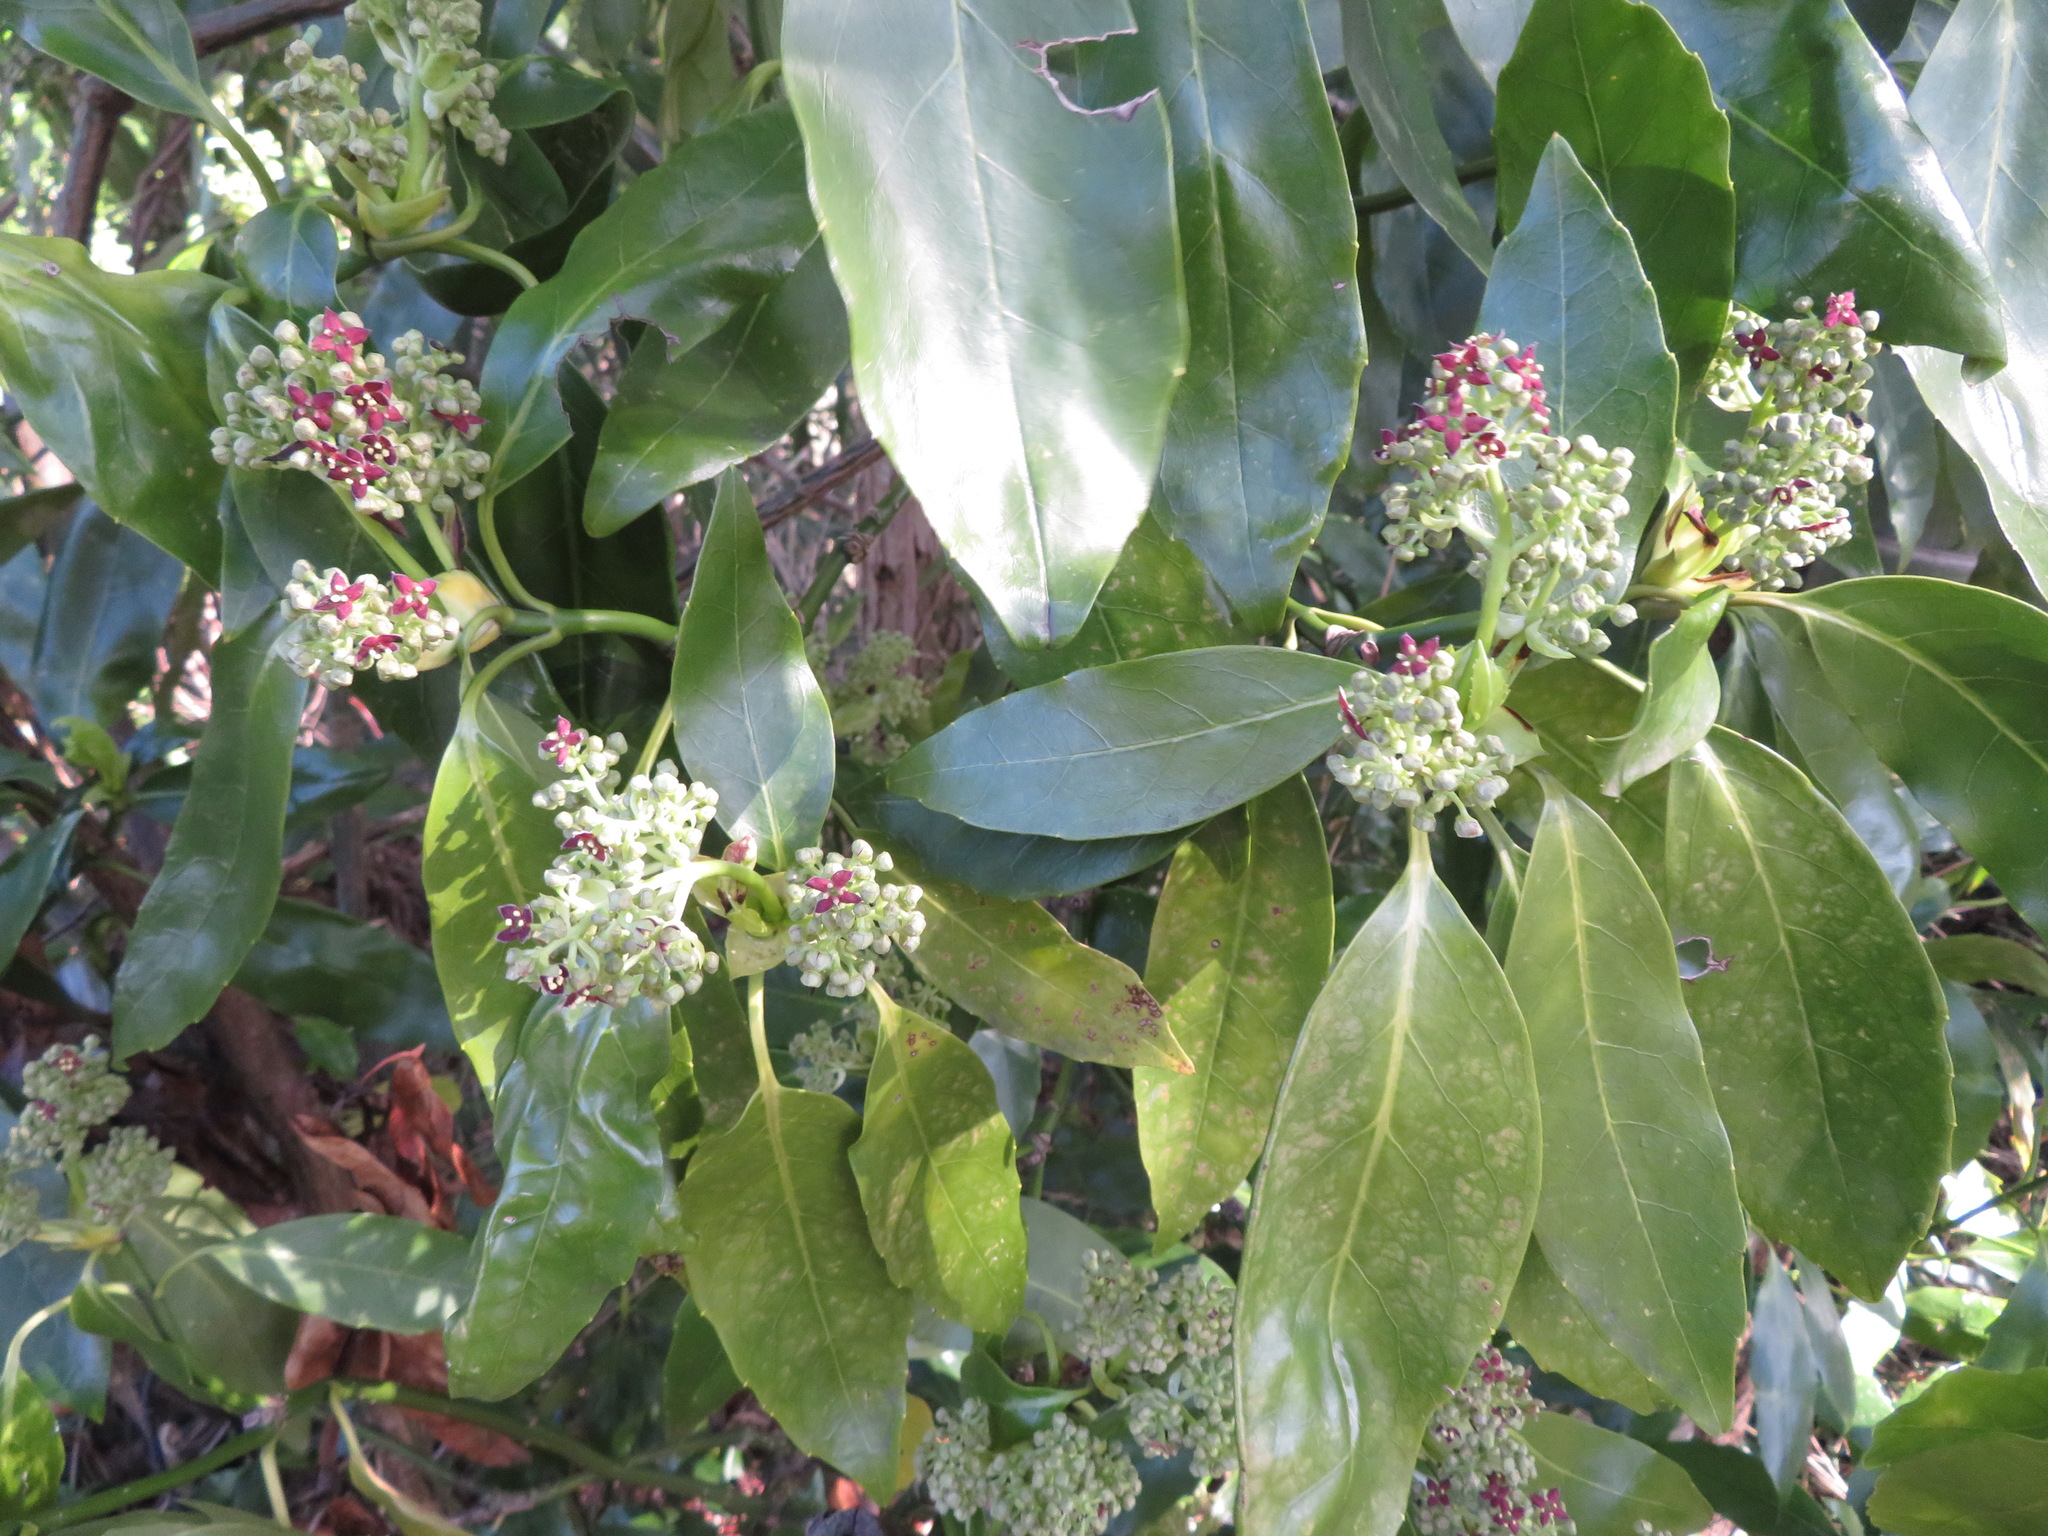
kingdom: Plantae
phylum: Tracheophyta
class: Magnoliopsida
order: Garryales
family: Garryaceae
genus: Aucuba
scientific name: Aucuba japonica
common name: Spotted-laurel
